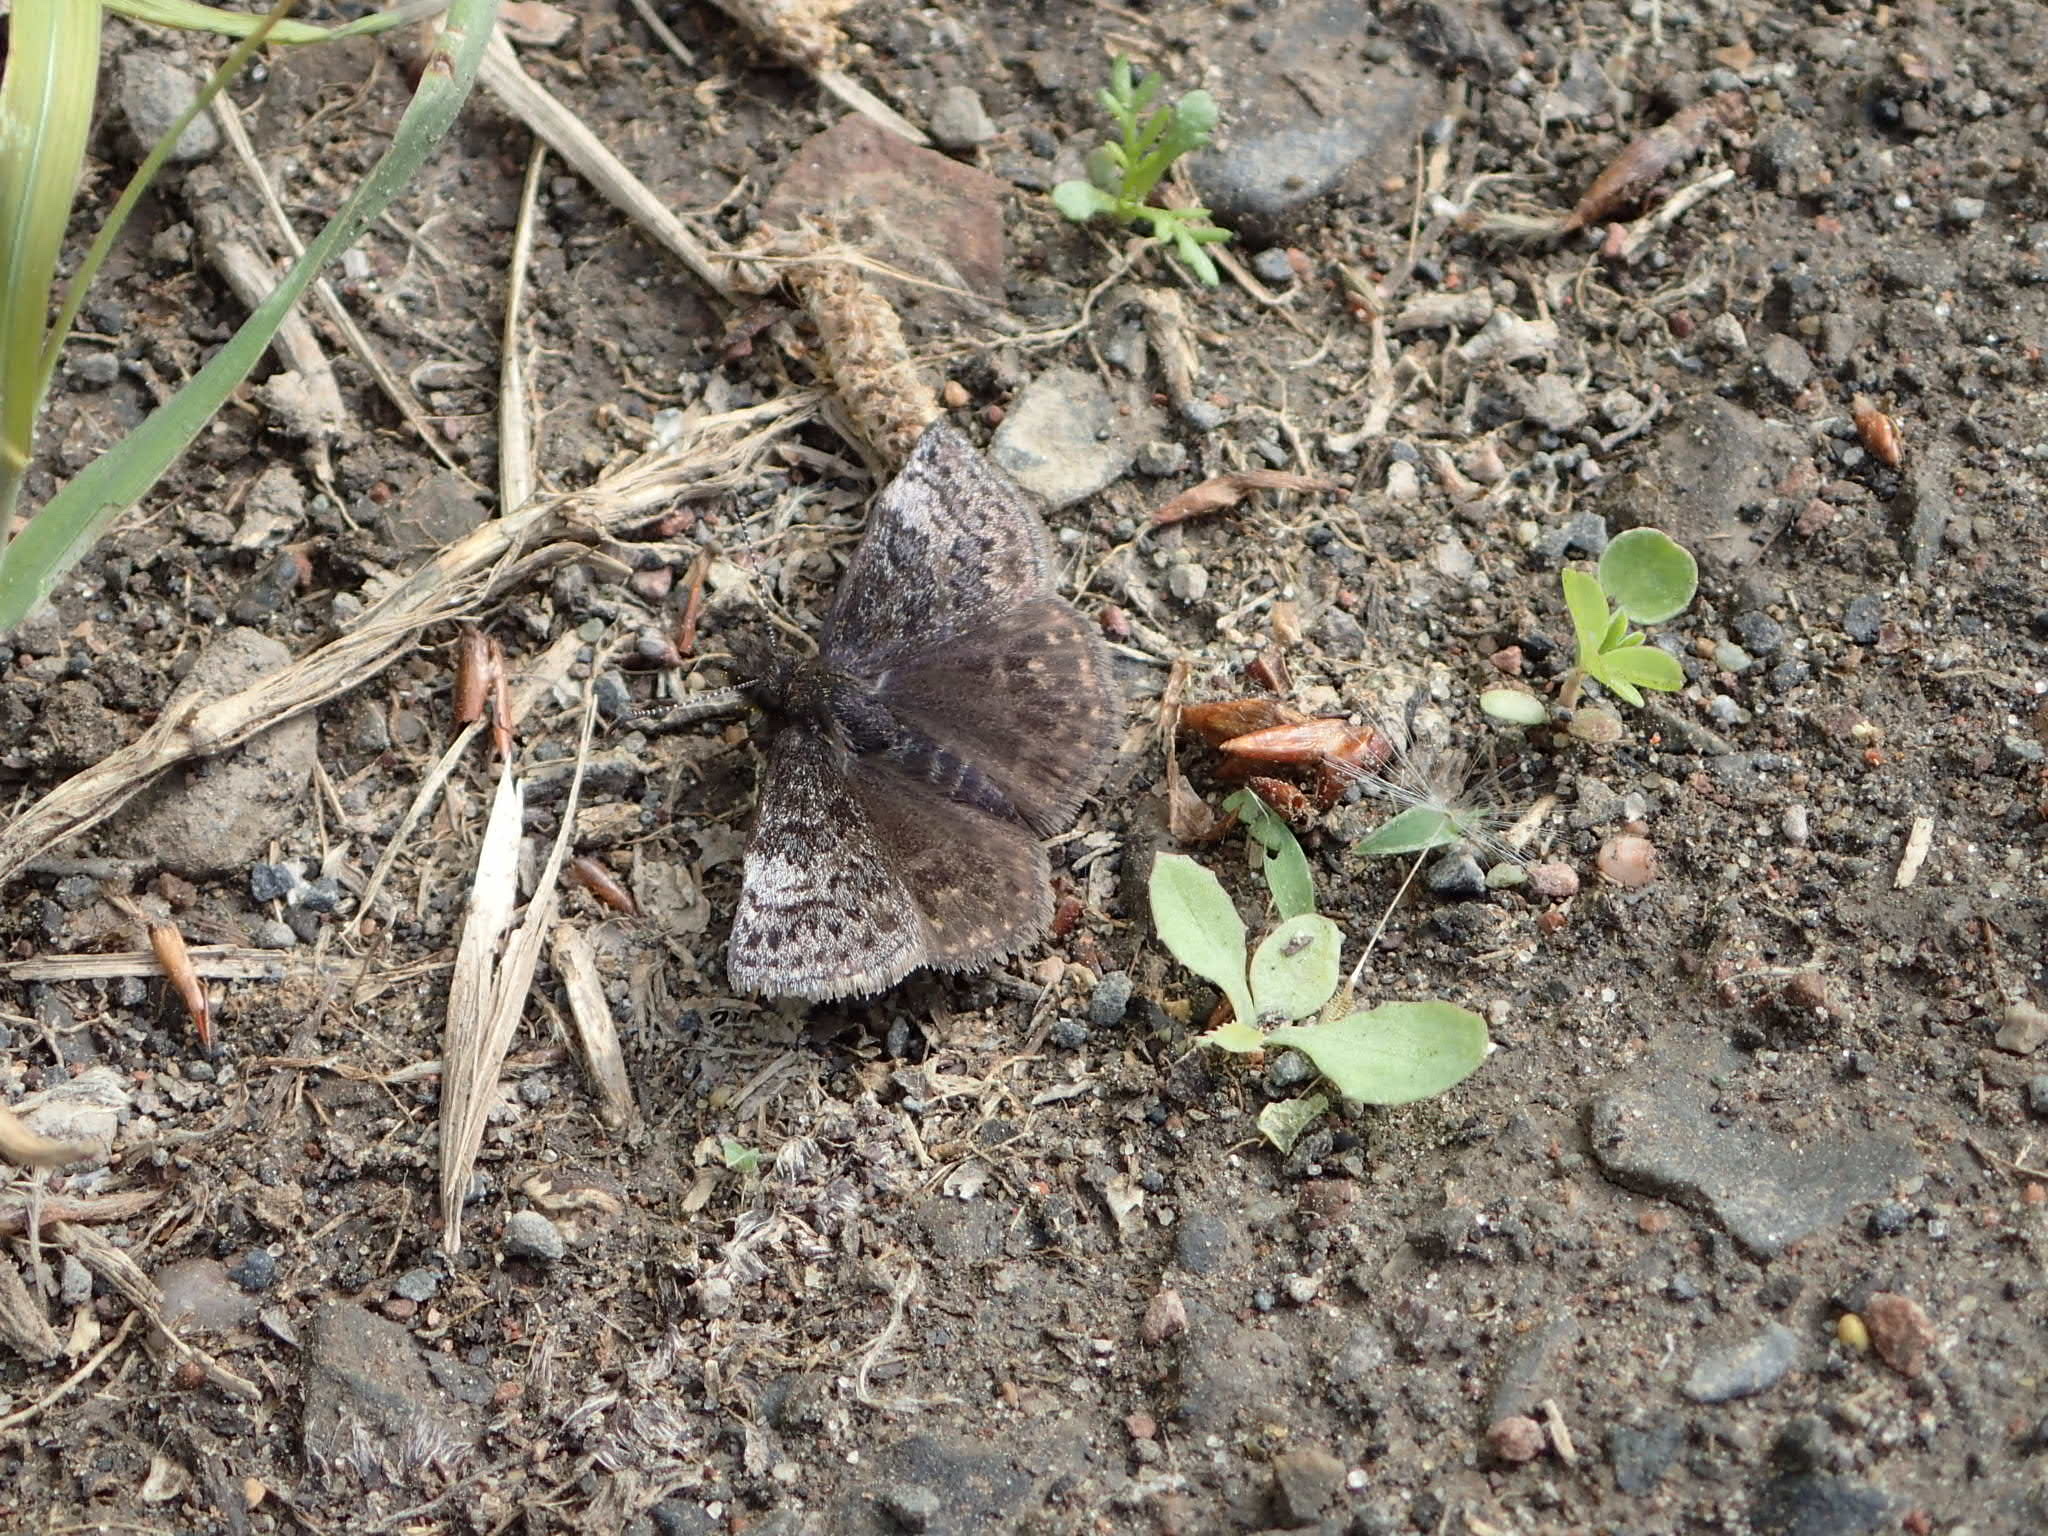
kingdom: Animalia
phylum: Arthropoda
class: Insecta
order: Lepidoptera
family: Hesperiidae
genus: Erynnis
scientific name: Erynnis icelus
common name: Dreamy duskywing
